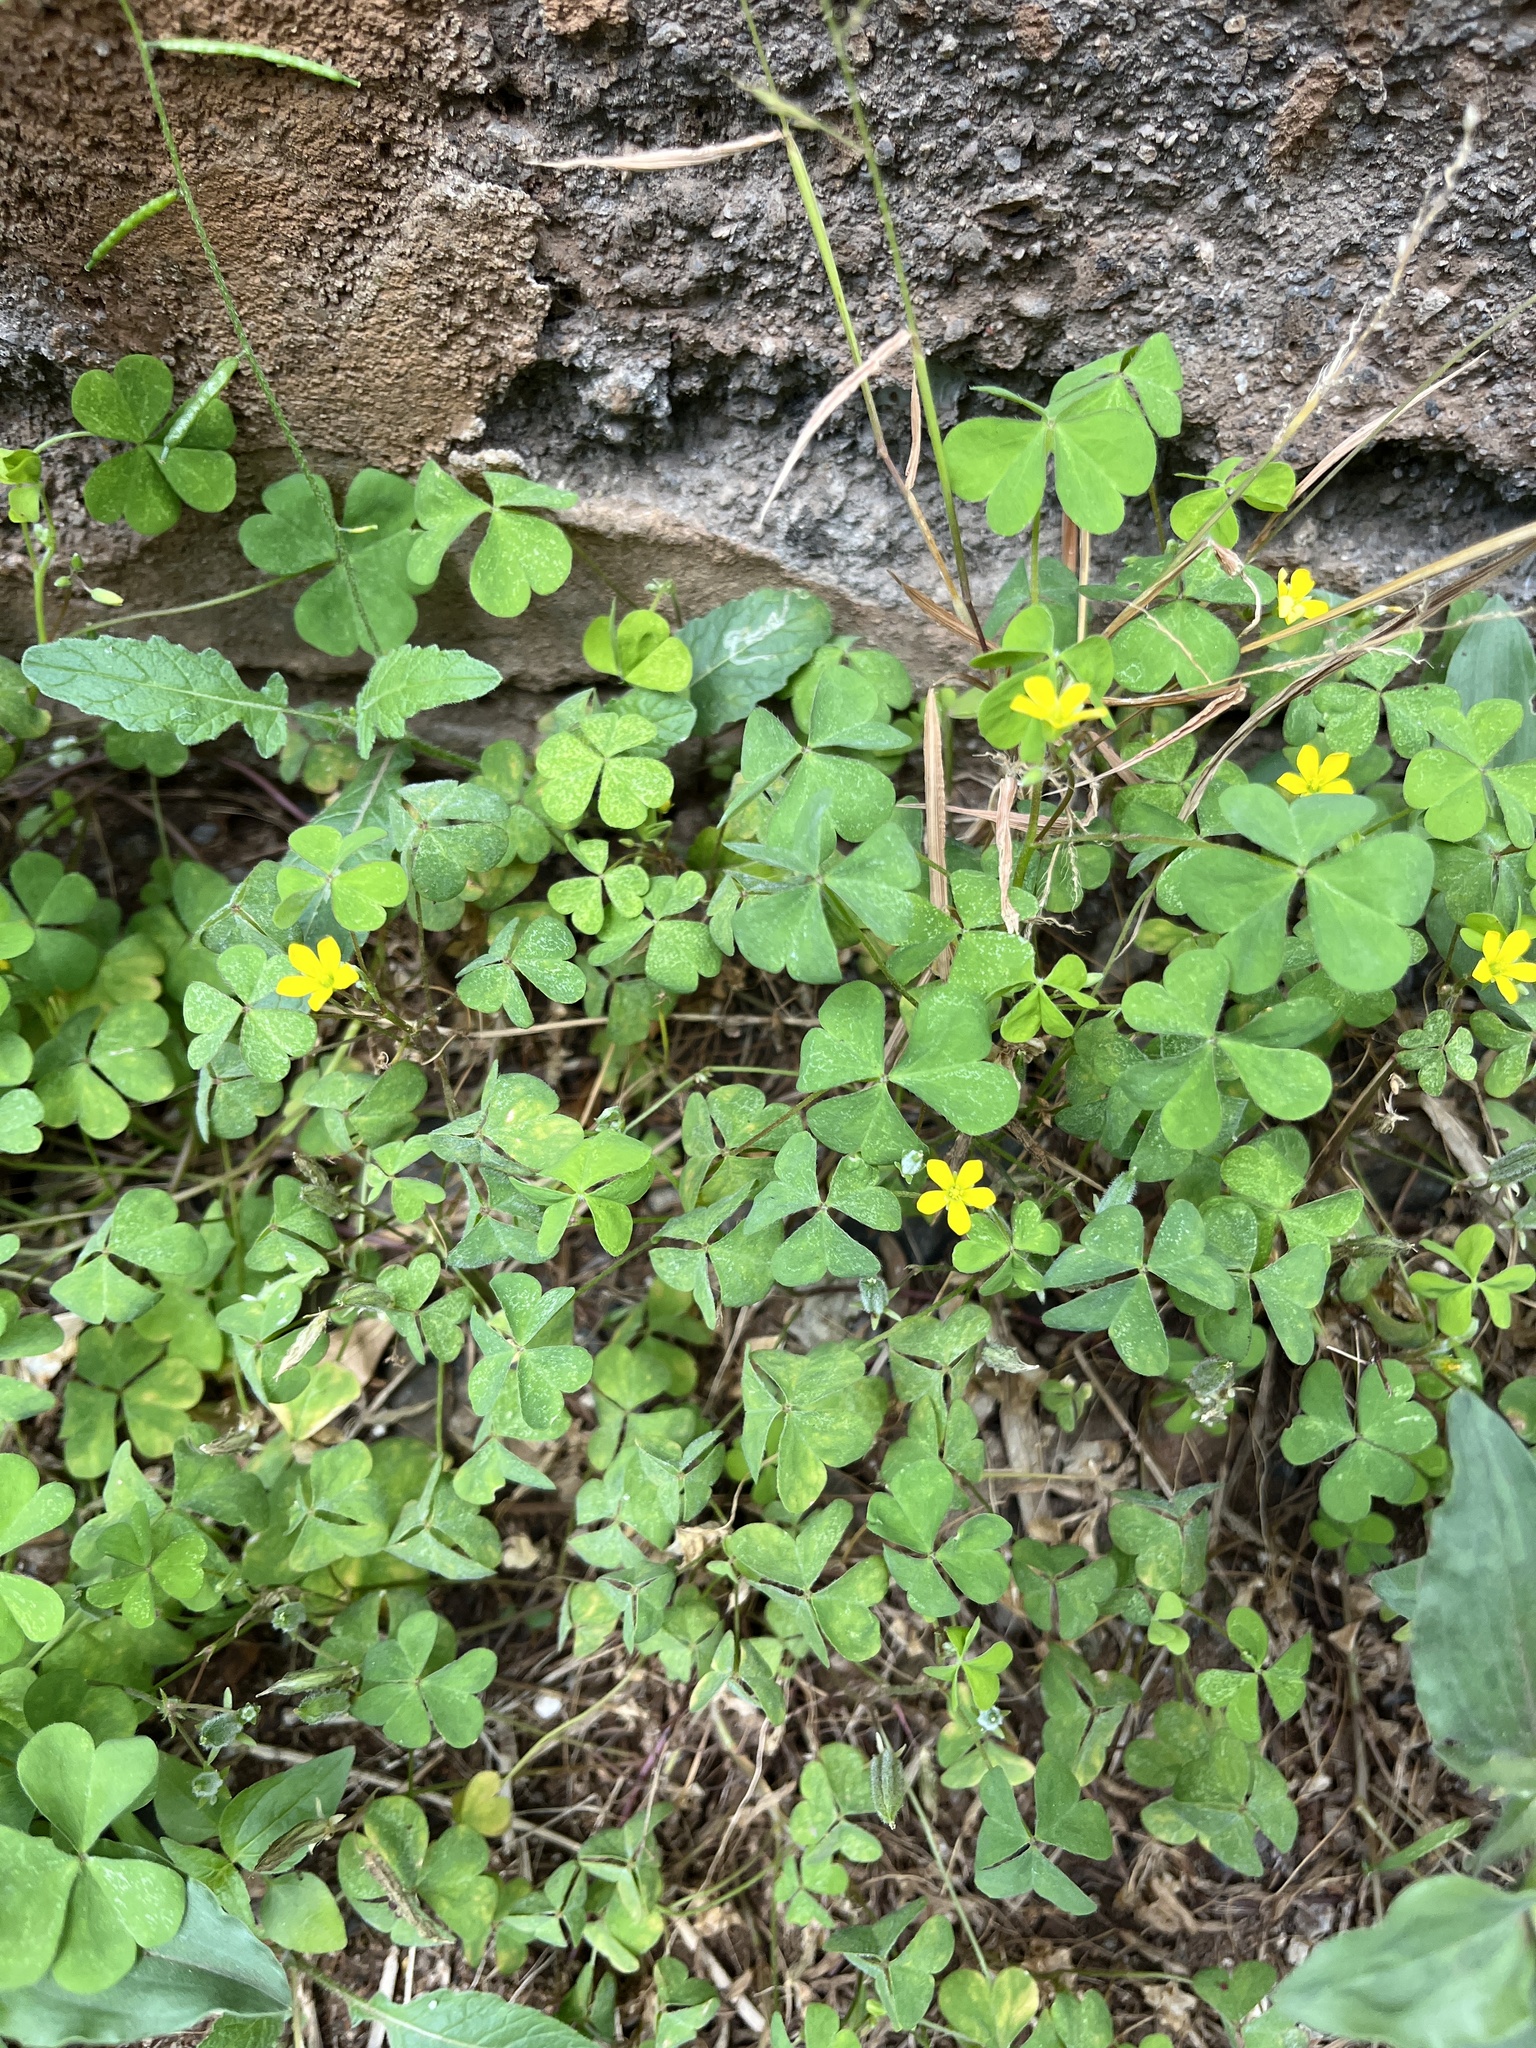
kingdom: Plantae
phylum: Tracheophyta
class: Magnoliopsida
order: Oxalidales
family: Oxalidaceae
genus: Oxalis
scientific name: Oxalis corniculata
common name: Procumbent yellow-sorrel
